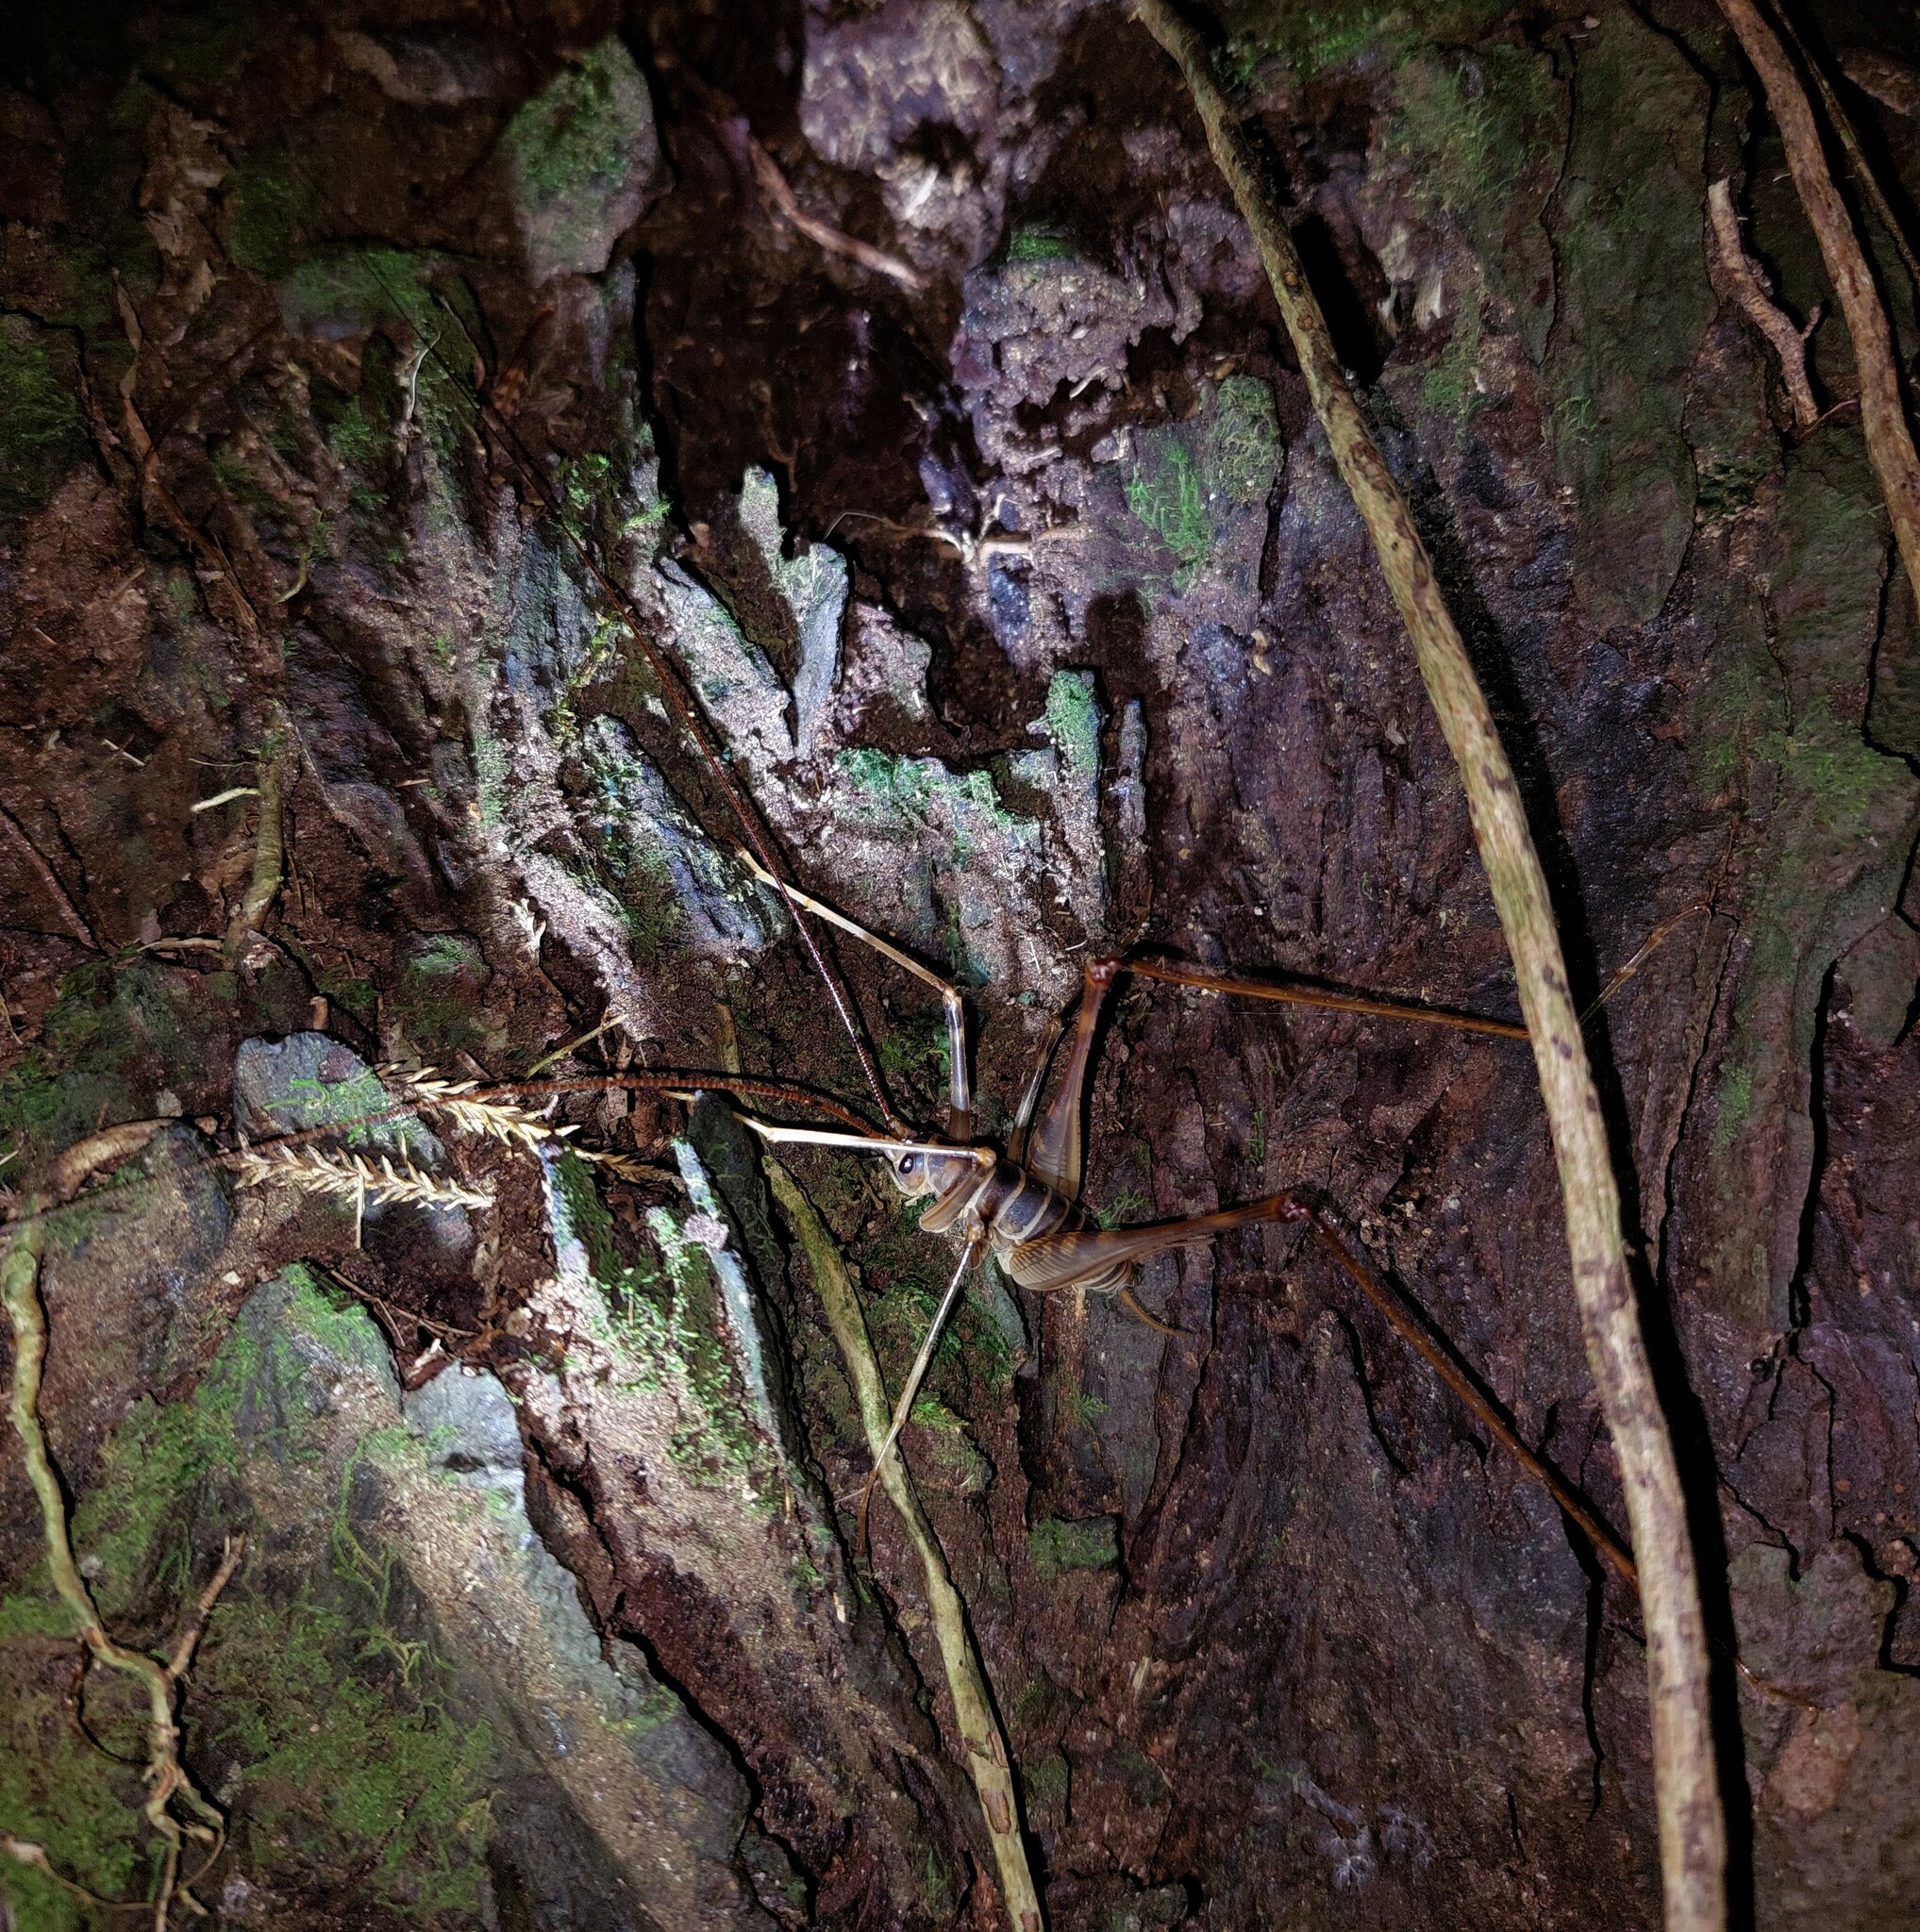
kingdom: Animalia
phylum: Arthropoda
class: Insecta
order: Orthoptera
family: Rhaphidophoridae
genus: Pachyrhamma
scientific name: Pachyrhamma acanthocera
